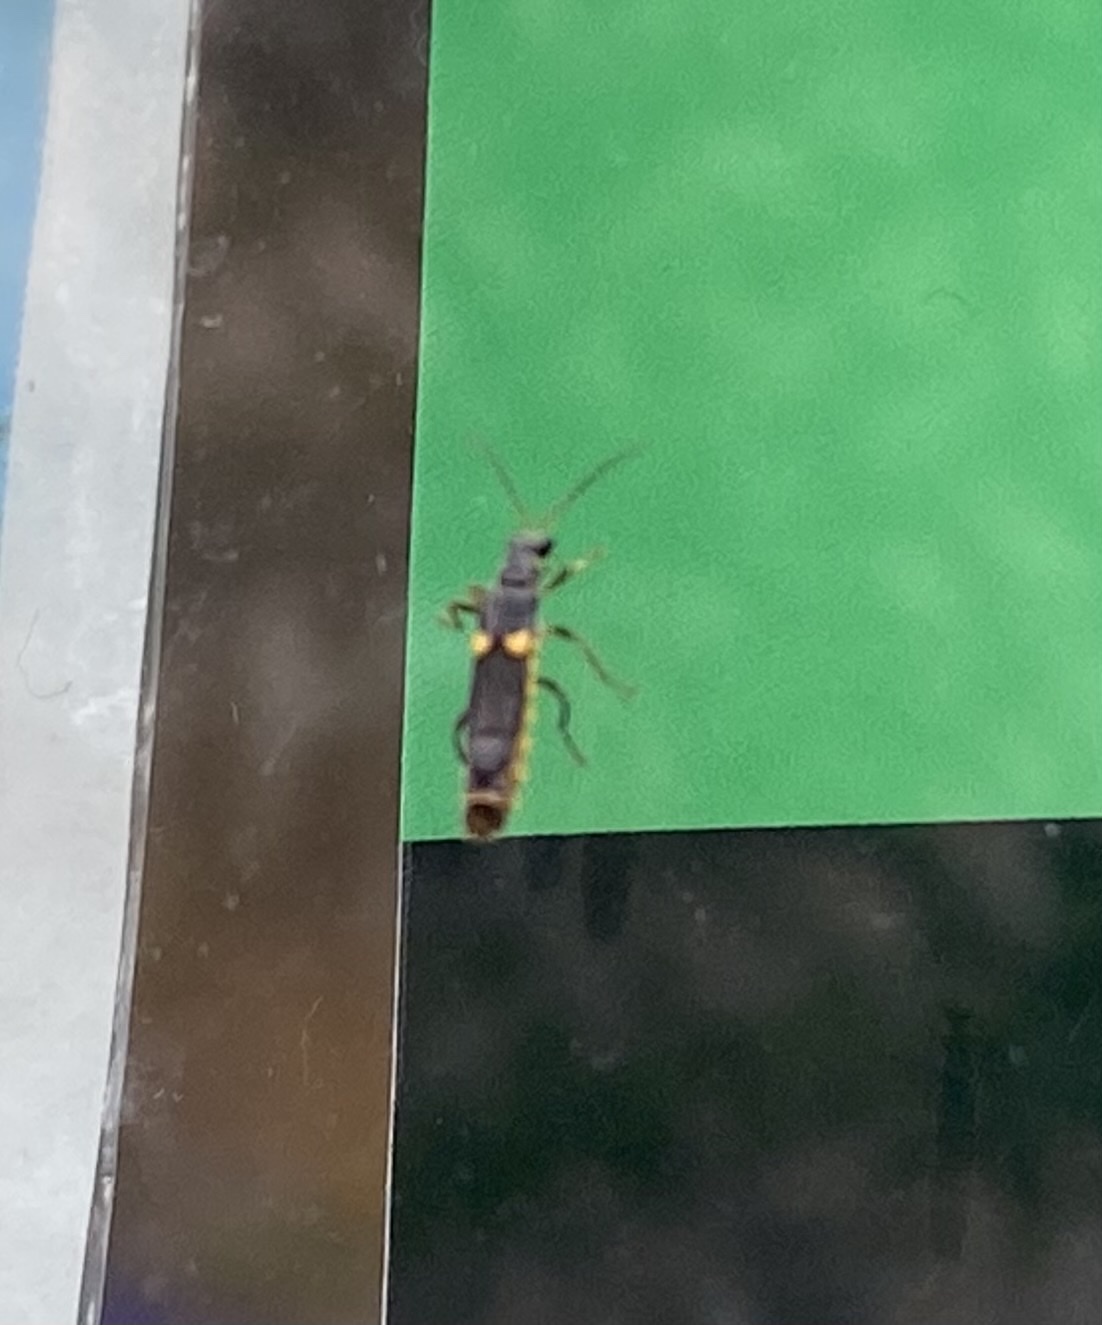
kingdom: Animalia
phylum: Arthropoda
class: Insecta
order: Coleoptera
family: Cantharidae
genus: Trypherus
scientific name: Trypherus
